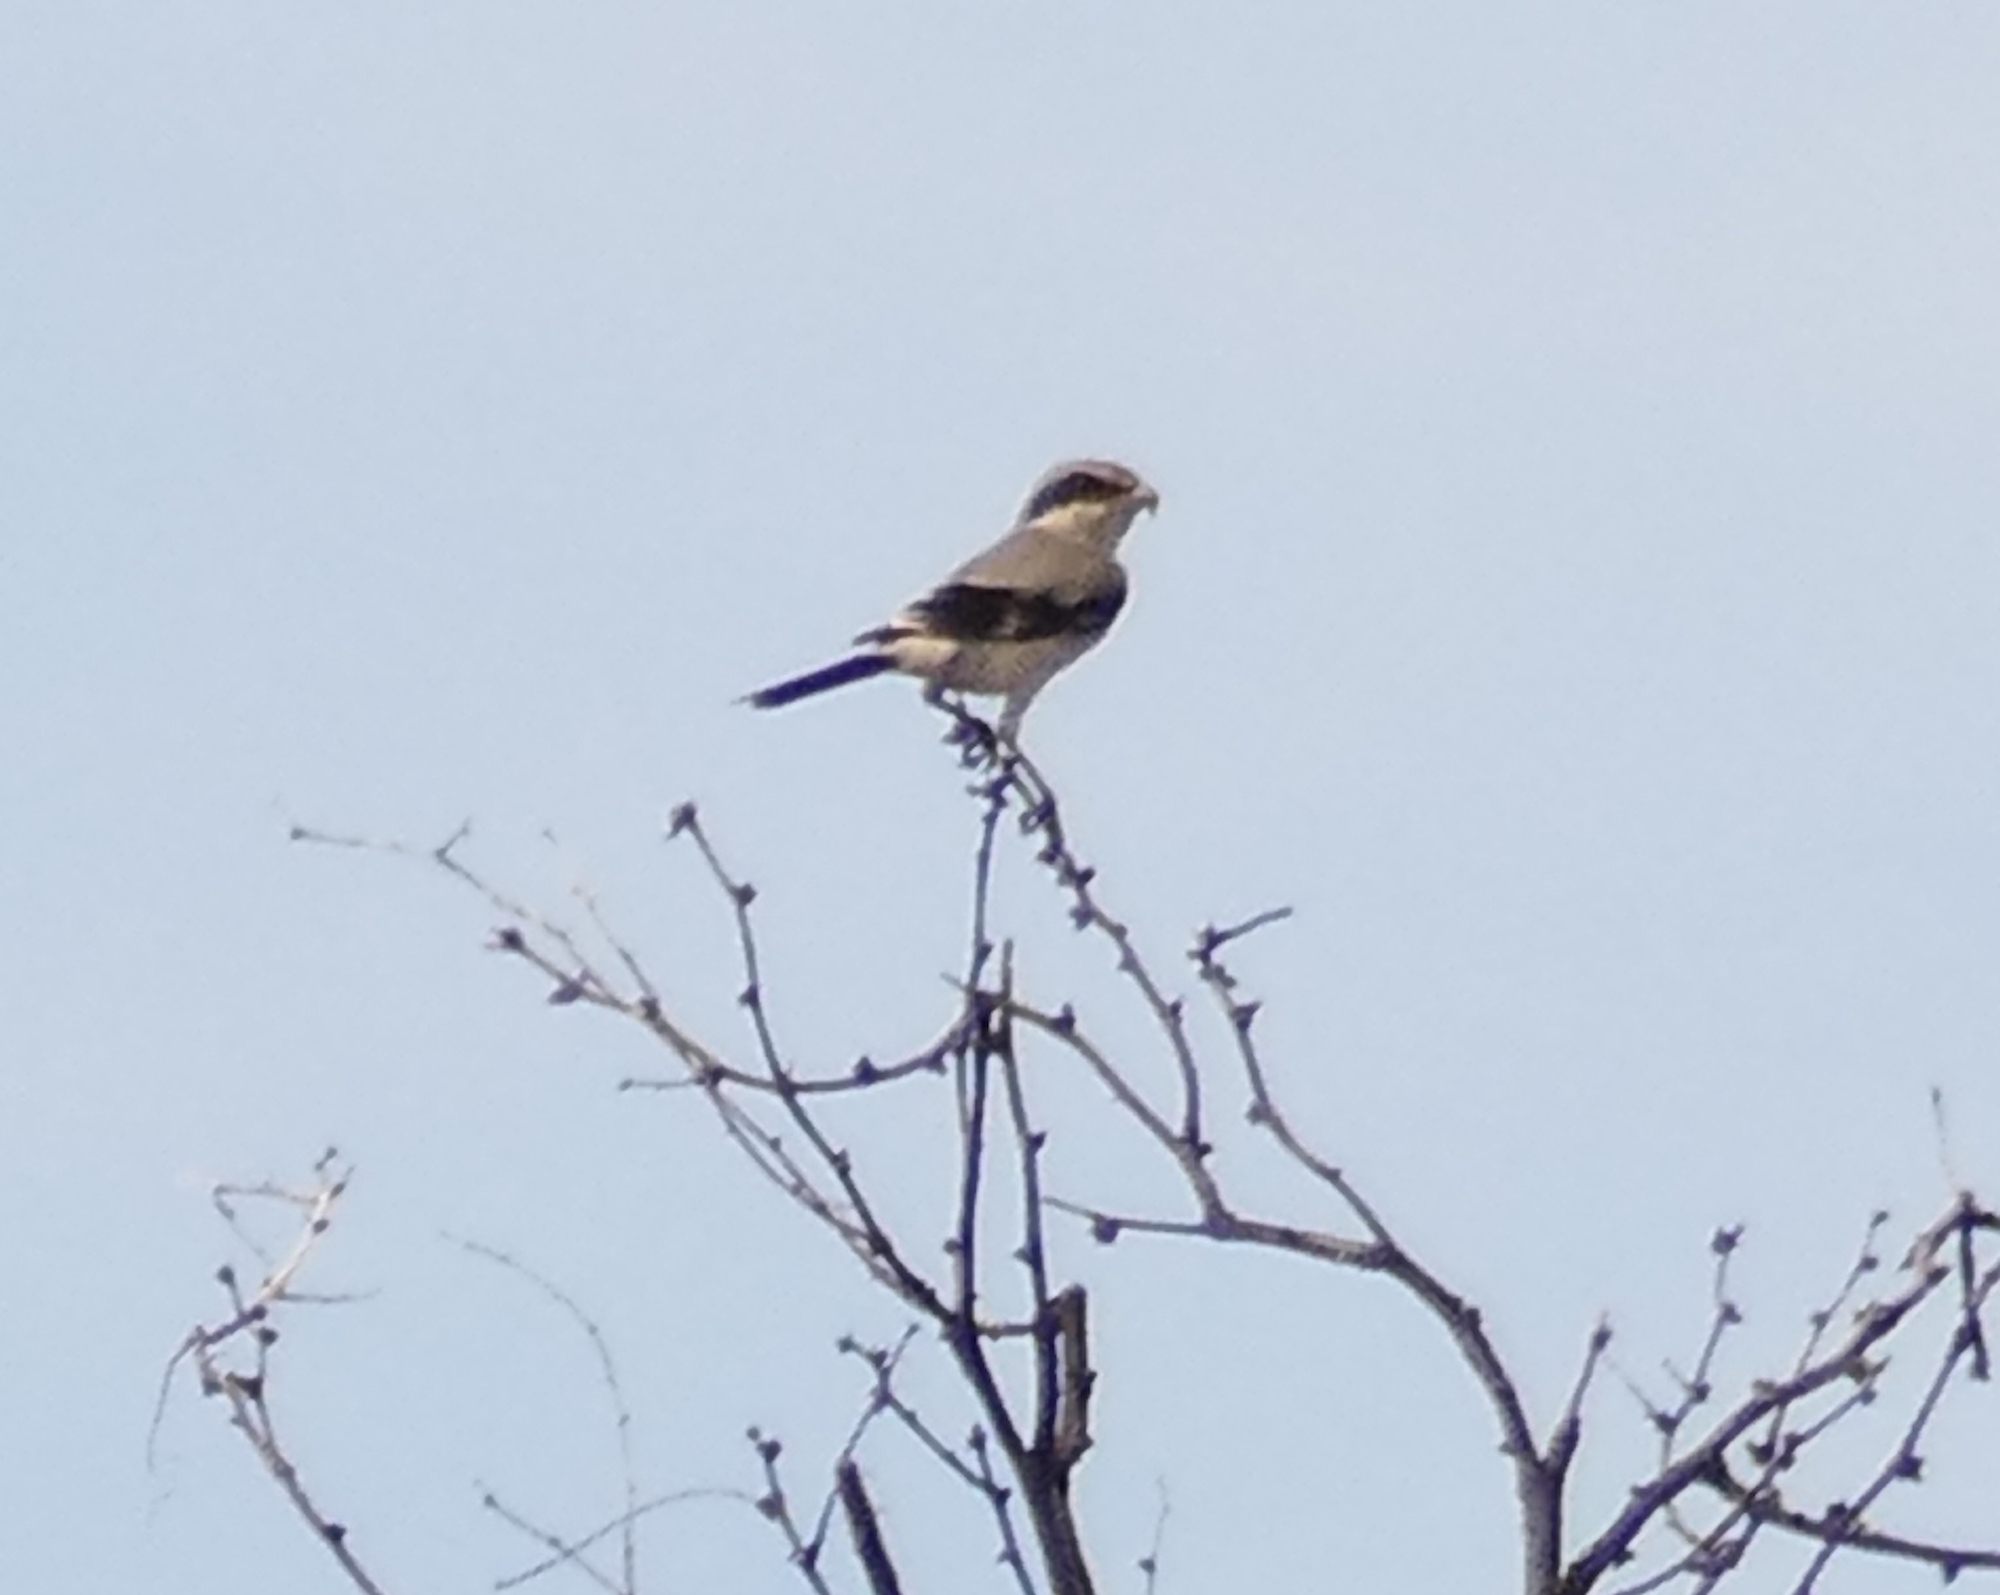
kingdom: Animalia
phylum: Chordata
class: Aves
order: Passeriformes
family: Laniidae
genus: Lanius
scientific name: Lanius ludovicianus
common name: Loggerhead shrike
